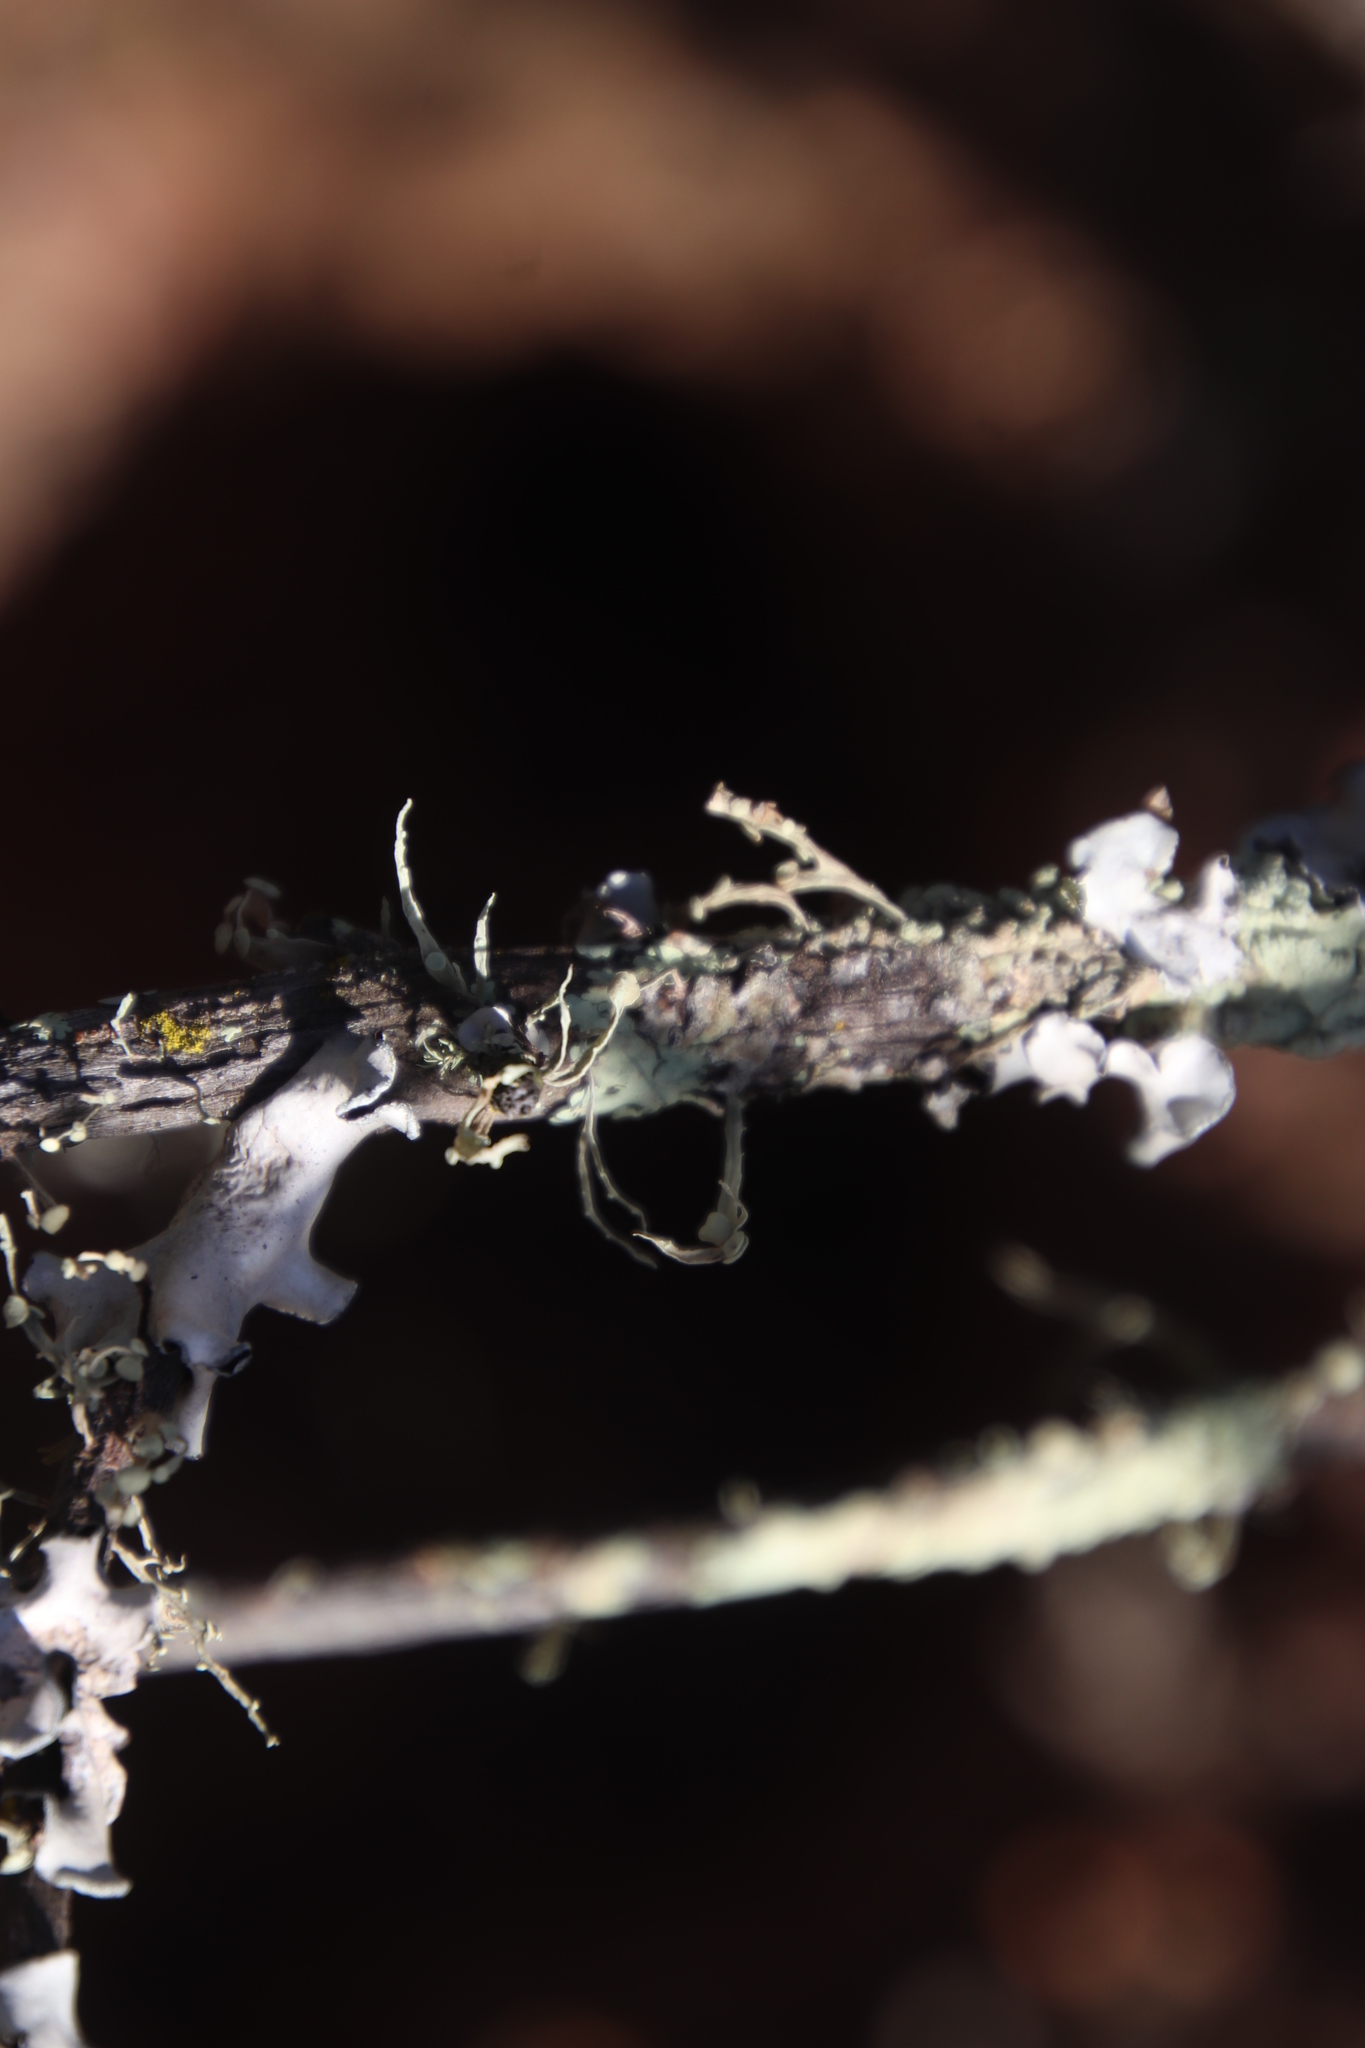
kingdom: Fungi
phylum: Ascomycota
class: Lecanoromycetes
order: Lecanorales
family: Ramalinaceae
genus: Ramalina
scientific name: Ramalina celastri
